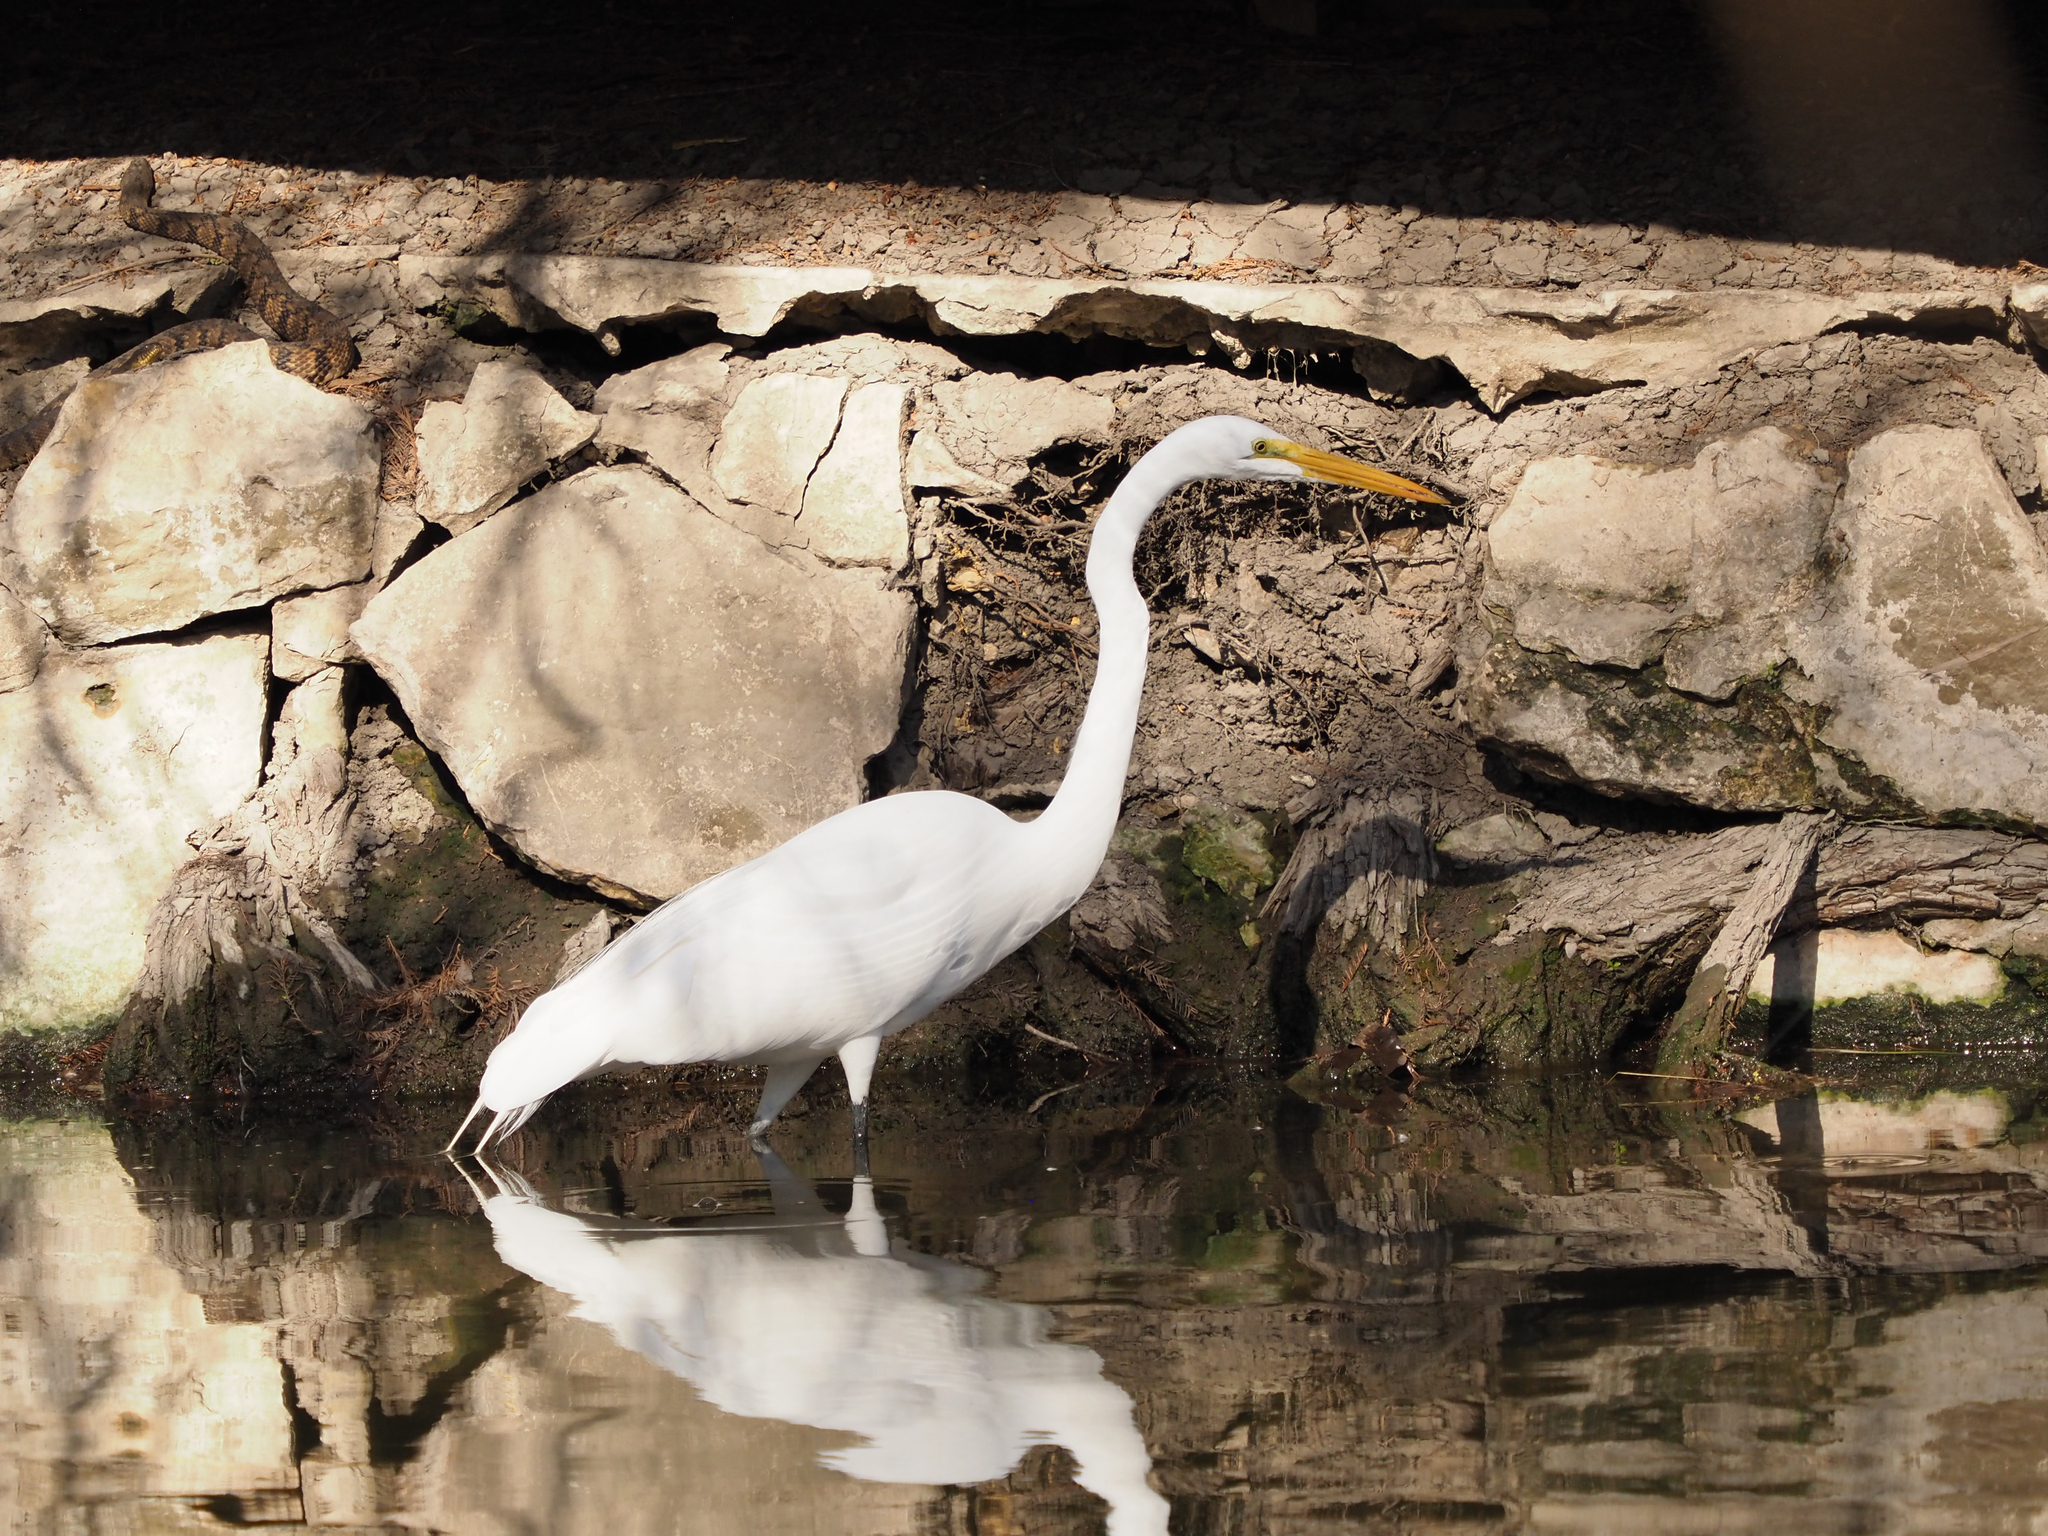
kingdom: Animalia
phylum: Chordata
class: Aves
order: Pelecaniformes
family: Ardeidae
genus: Ardea
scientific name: Ardea alba
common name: Great egret
